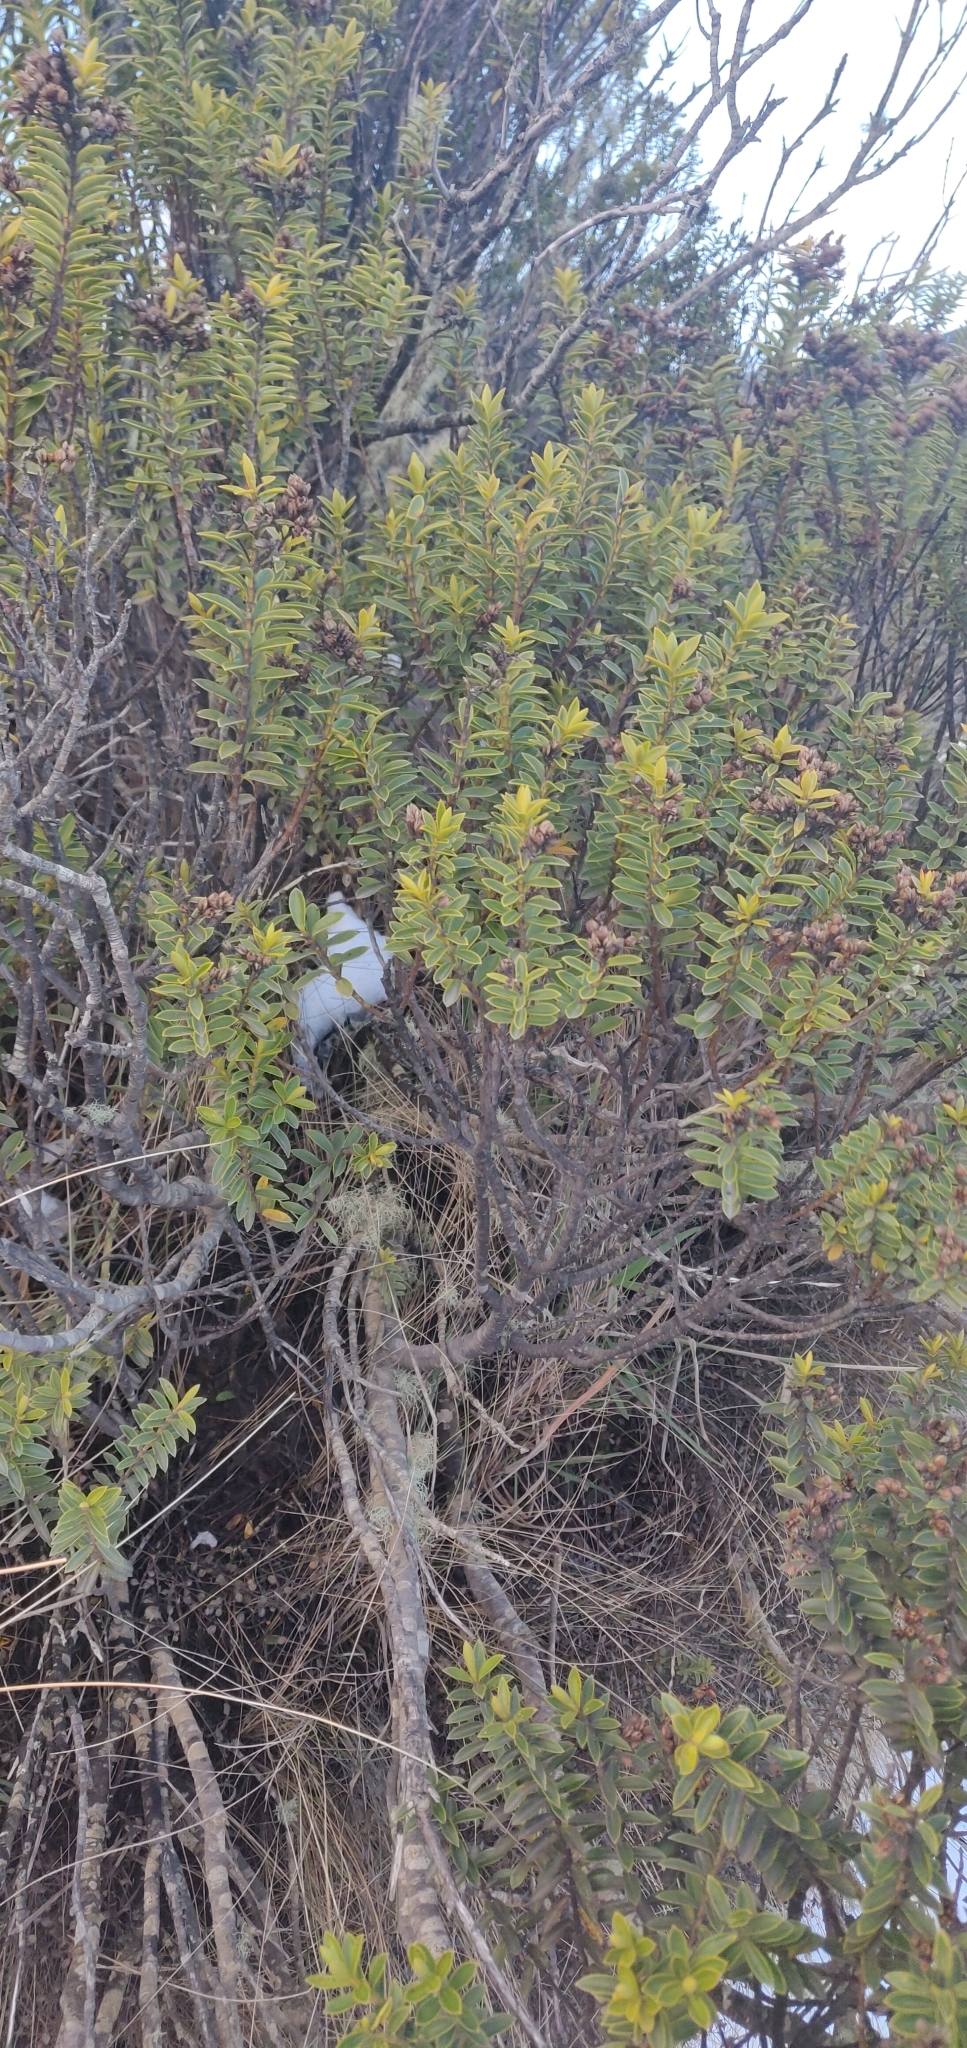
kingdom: Plantae
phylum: Tracheophyta
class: Magnoliopsida
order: Lamiales
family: Plantaginaceae
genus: Veronica
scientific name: Veronica venustula
